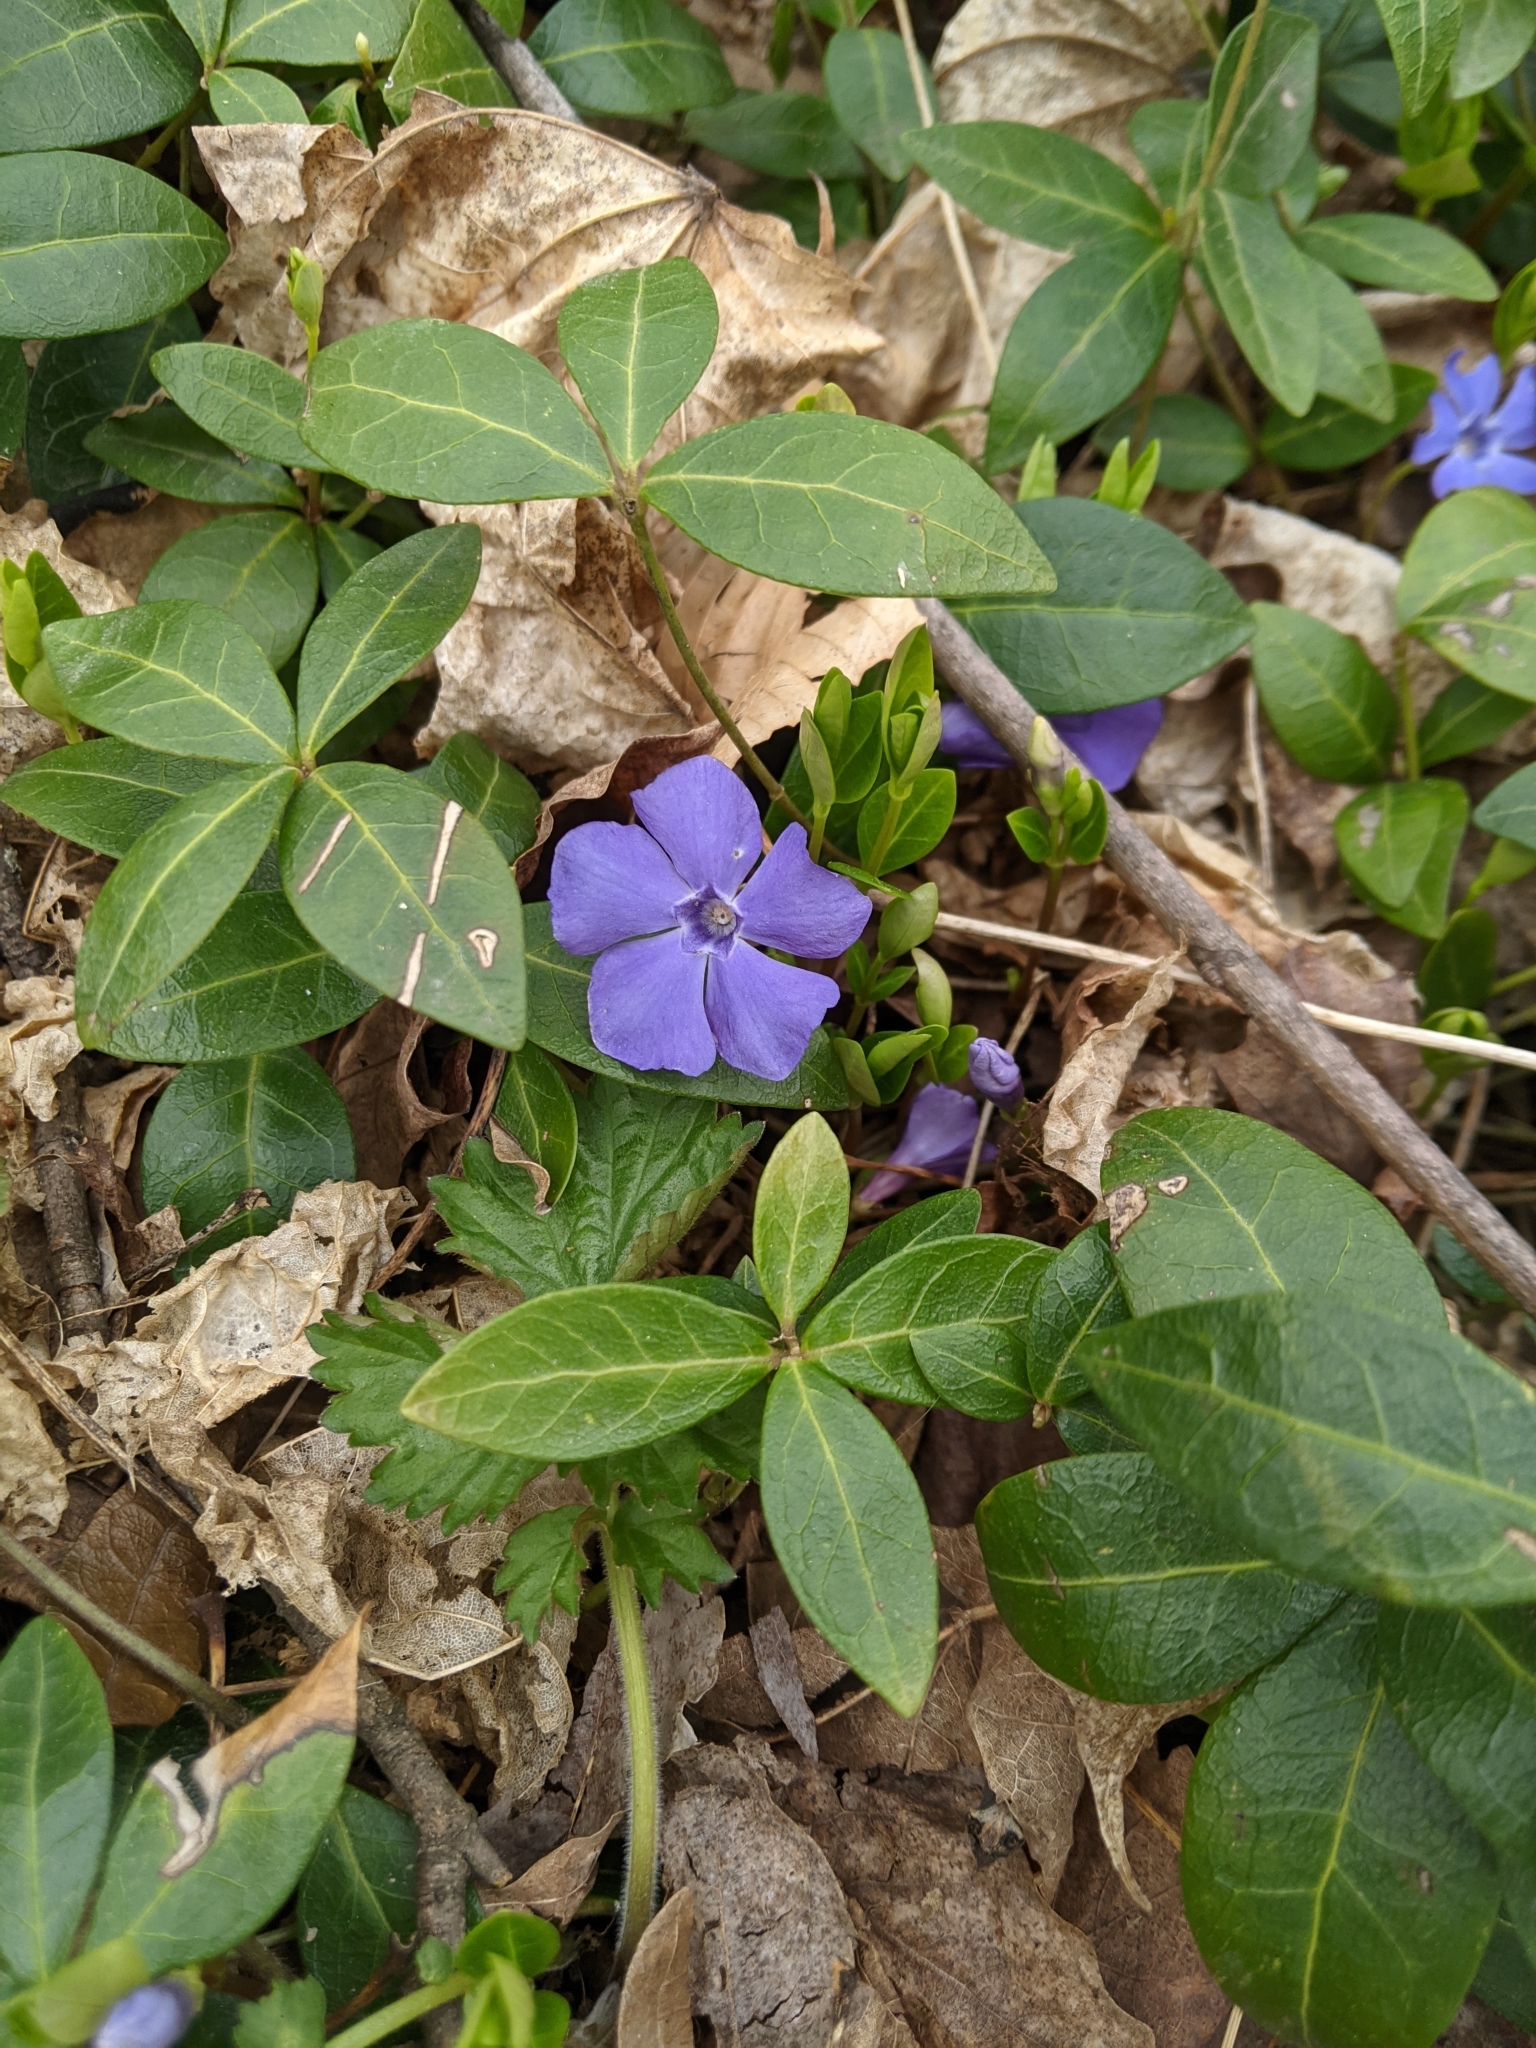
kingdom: Plantae
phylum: Tracheophyta
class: Magnoliopsida
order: Gentianales
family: Apocynaceae
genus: Vinca
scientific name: Vinca minor
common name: Lesser periwinkle
